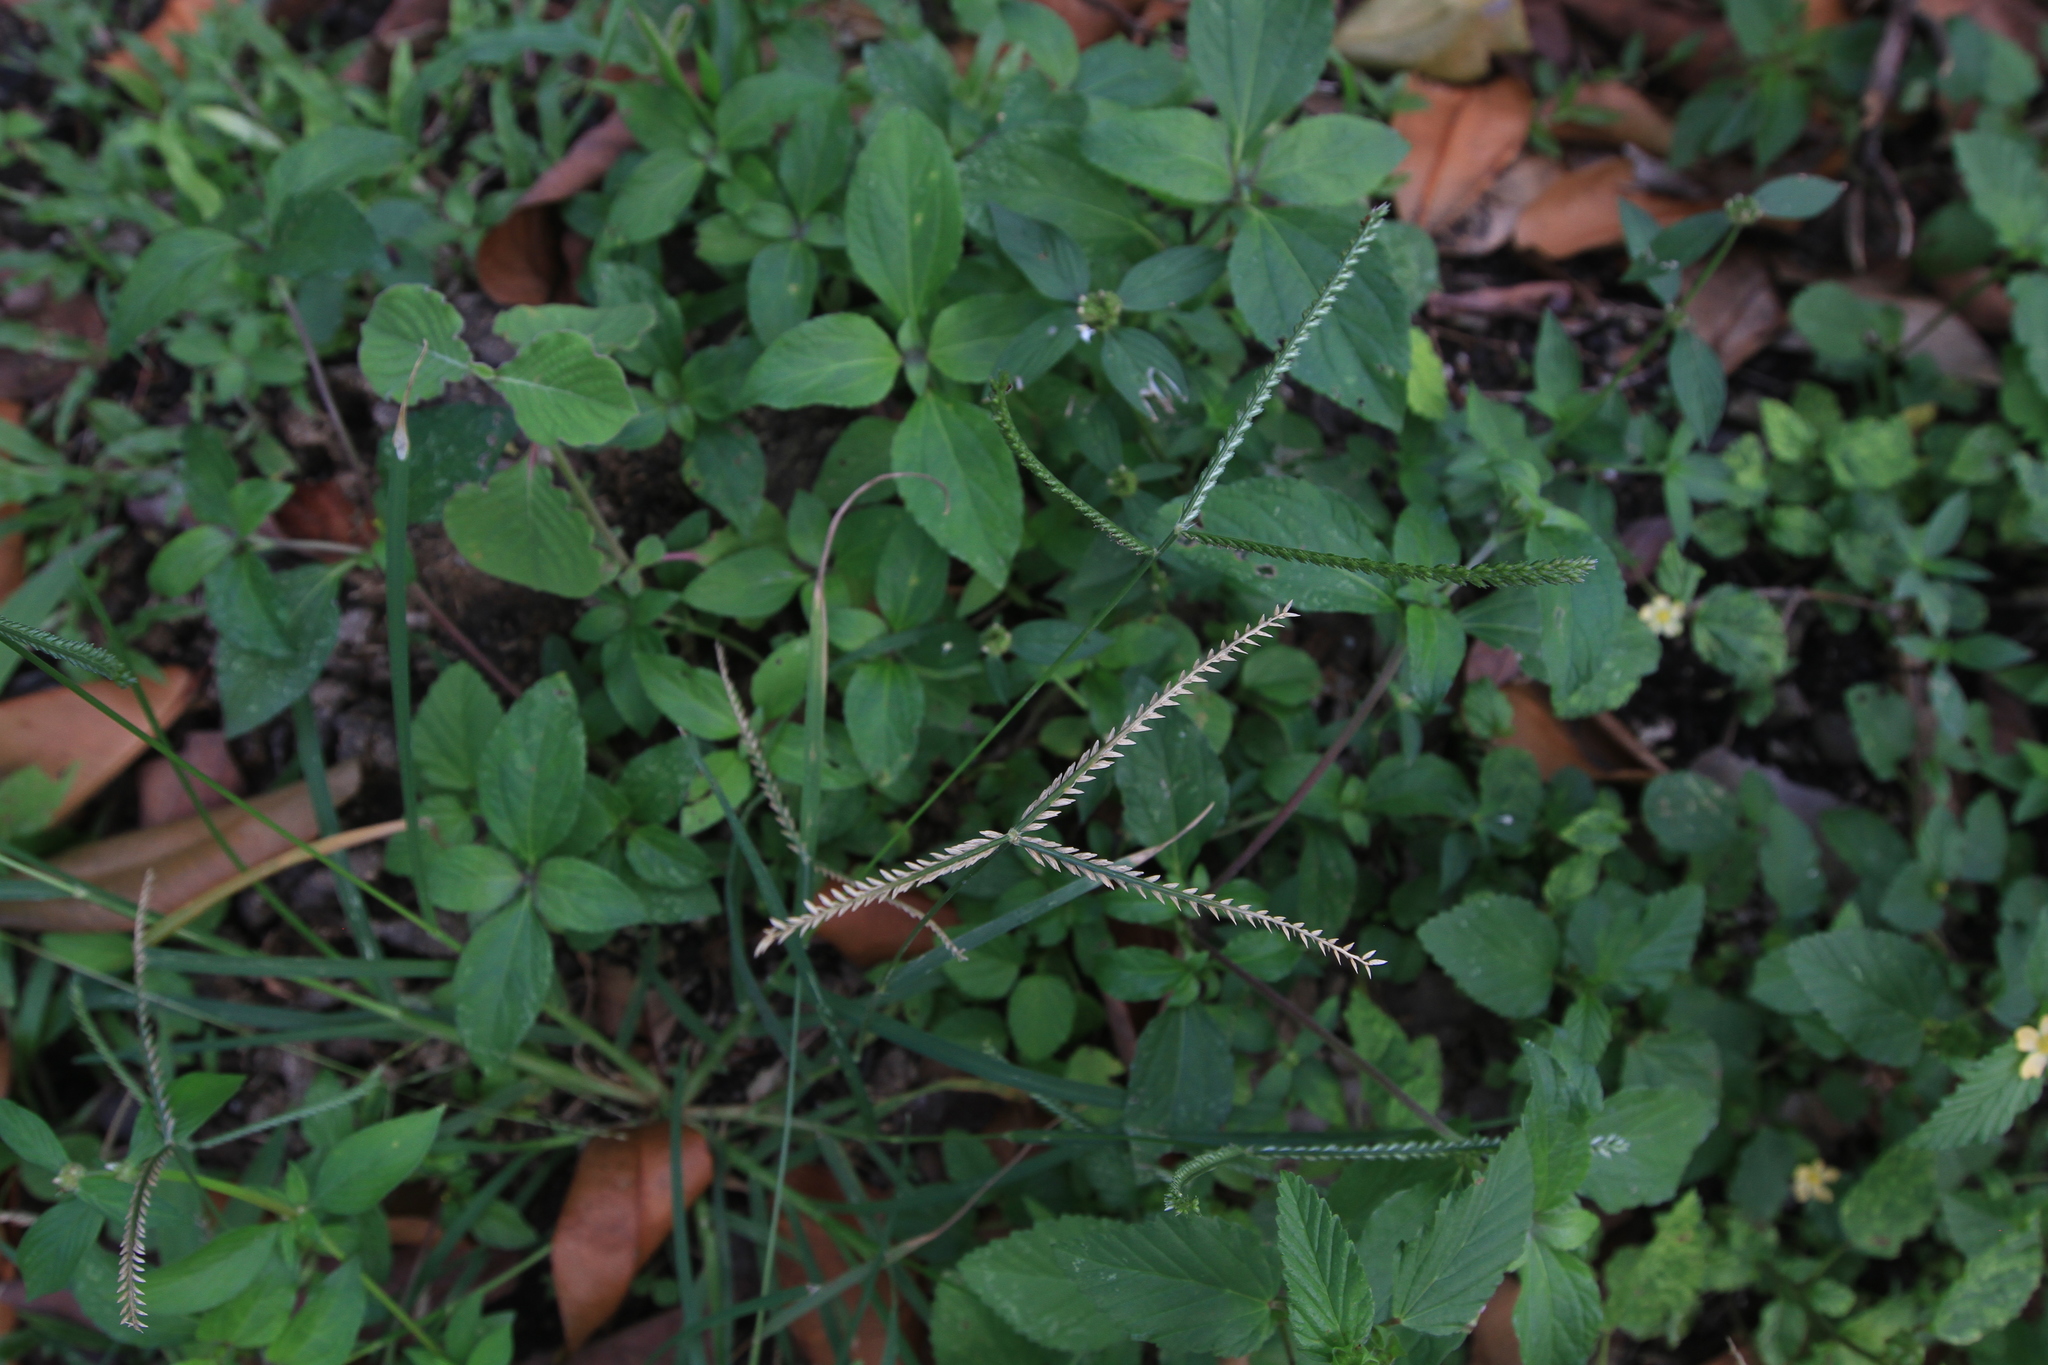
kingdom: Plantae
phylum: Tracheophyta
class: Liliopsida
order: Poales
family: Poaceae
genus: Eleusine
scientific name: Eleusine indica
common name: Yard-grass
